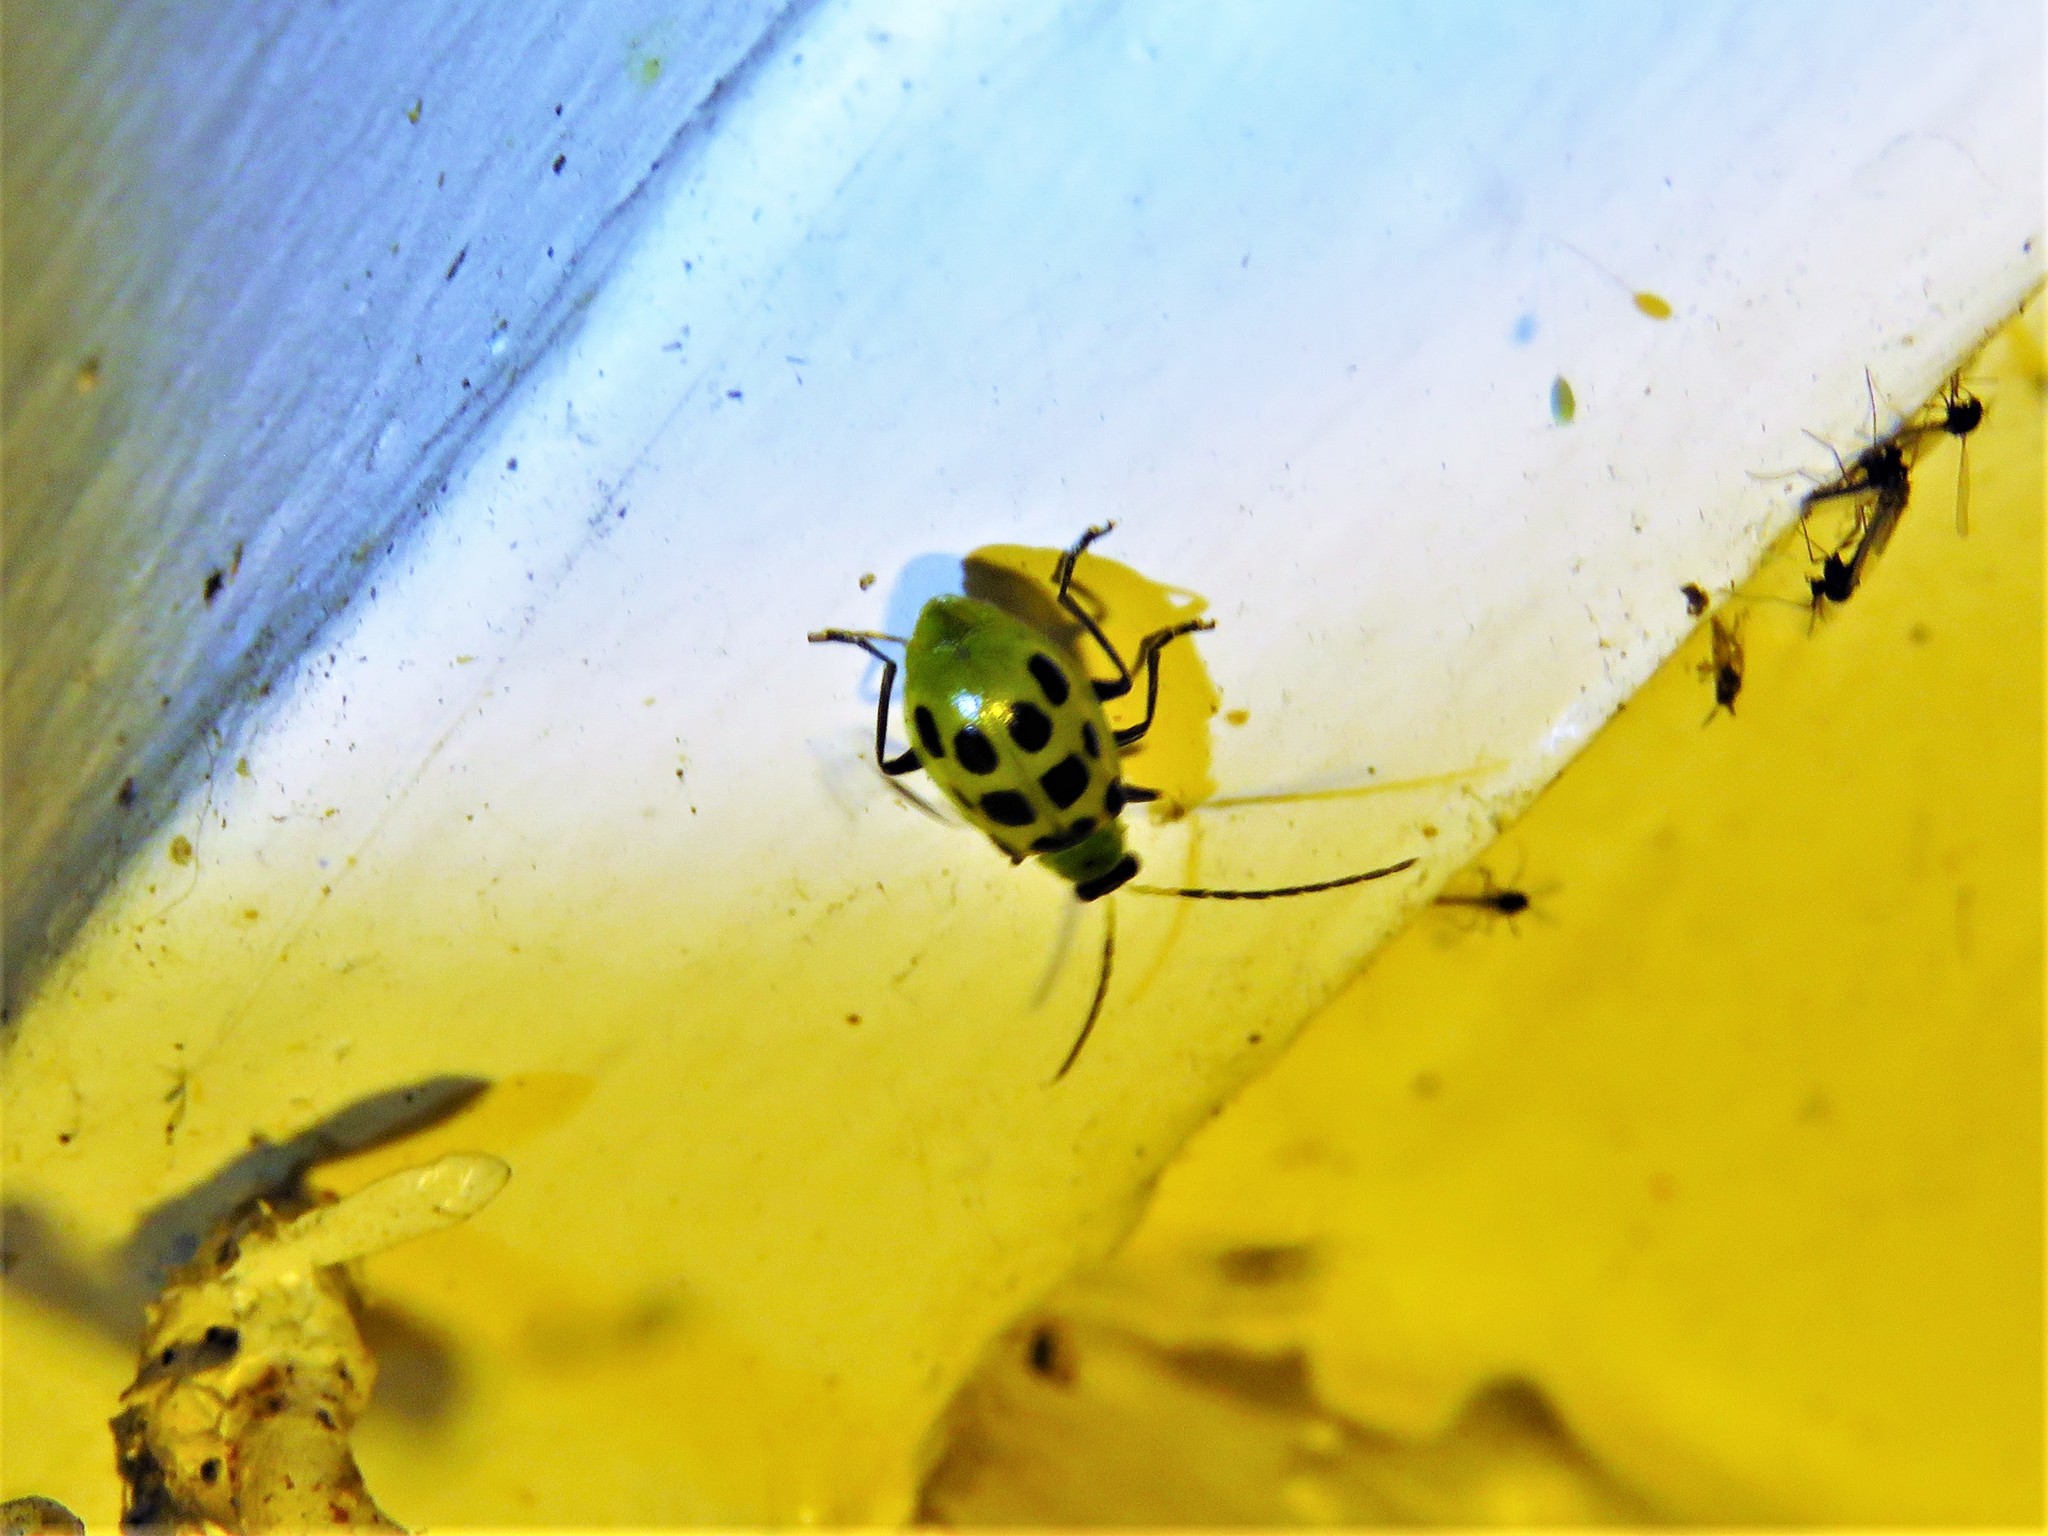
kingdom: Animalia
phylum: Arthropoda
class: Insecta
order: Coleoptera
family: Chrysomelidae
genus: Diabrotica
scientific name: Diabrotica undecimpunctata
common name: Spotted cucumber beetle
